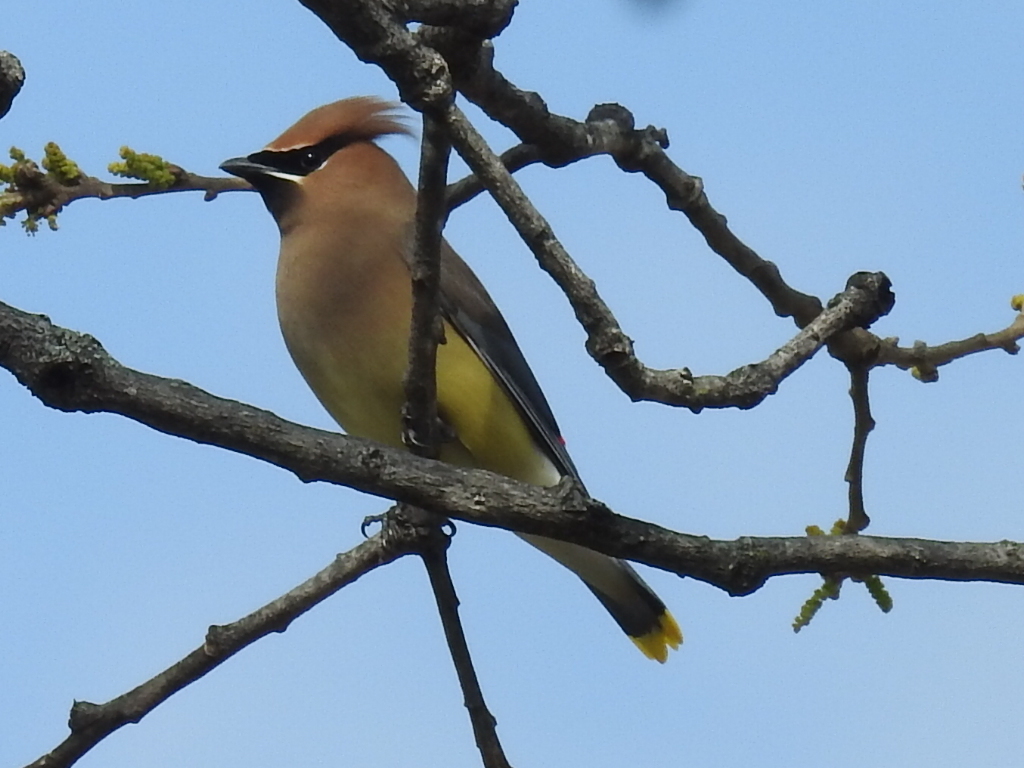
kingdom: Animalia
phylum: Chordata
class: Aves
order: Passeriformes
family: Bombycillidae
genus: Bombycilla
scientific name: Bombycilla cedrorum
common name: Cedar waxwing
